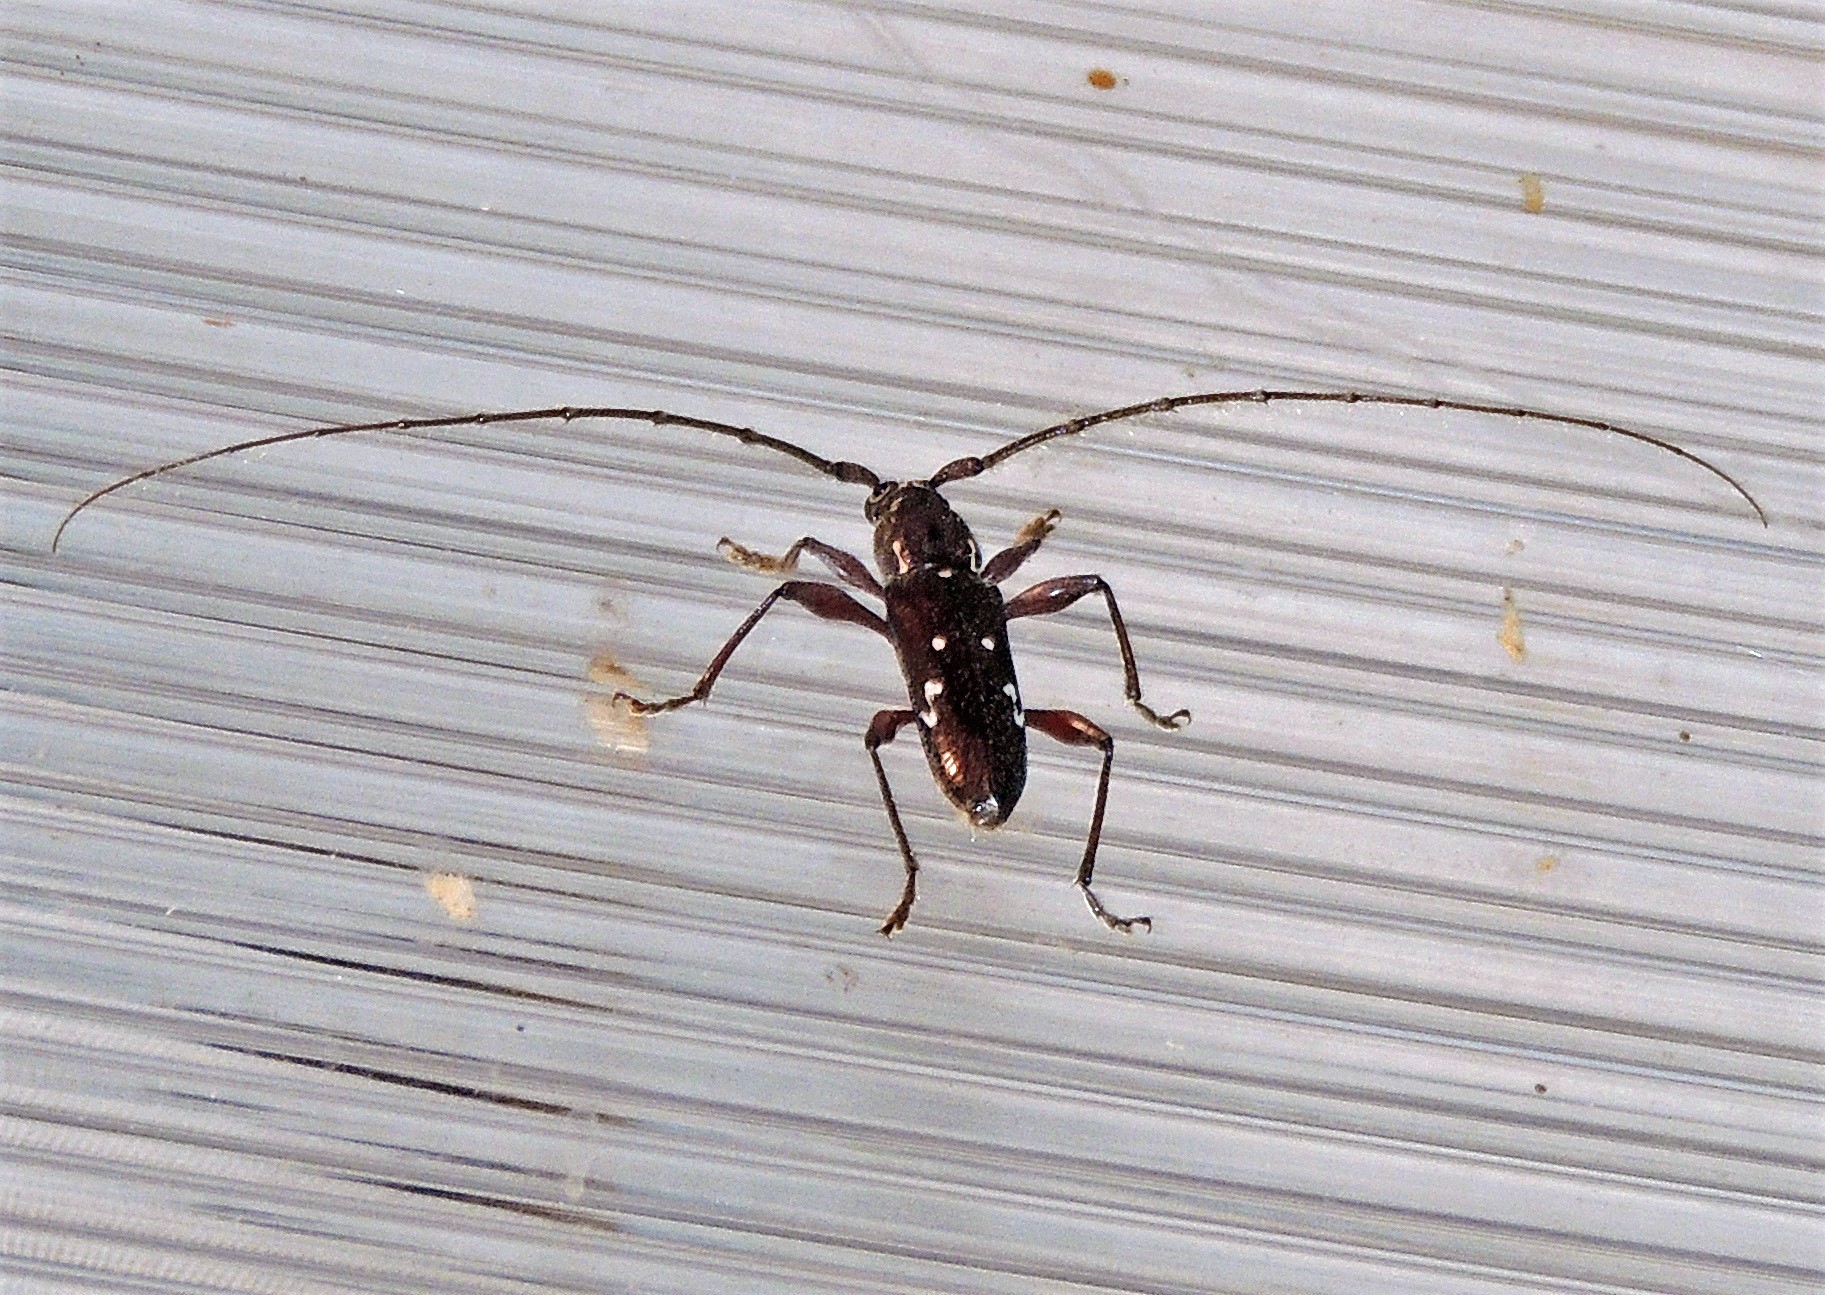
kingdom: Animalia
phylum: Arthropoda
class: Insecta
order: Coleoptera
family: Cerambycidae
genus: Ambonus
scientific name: Ambonus interrogationis
